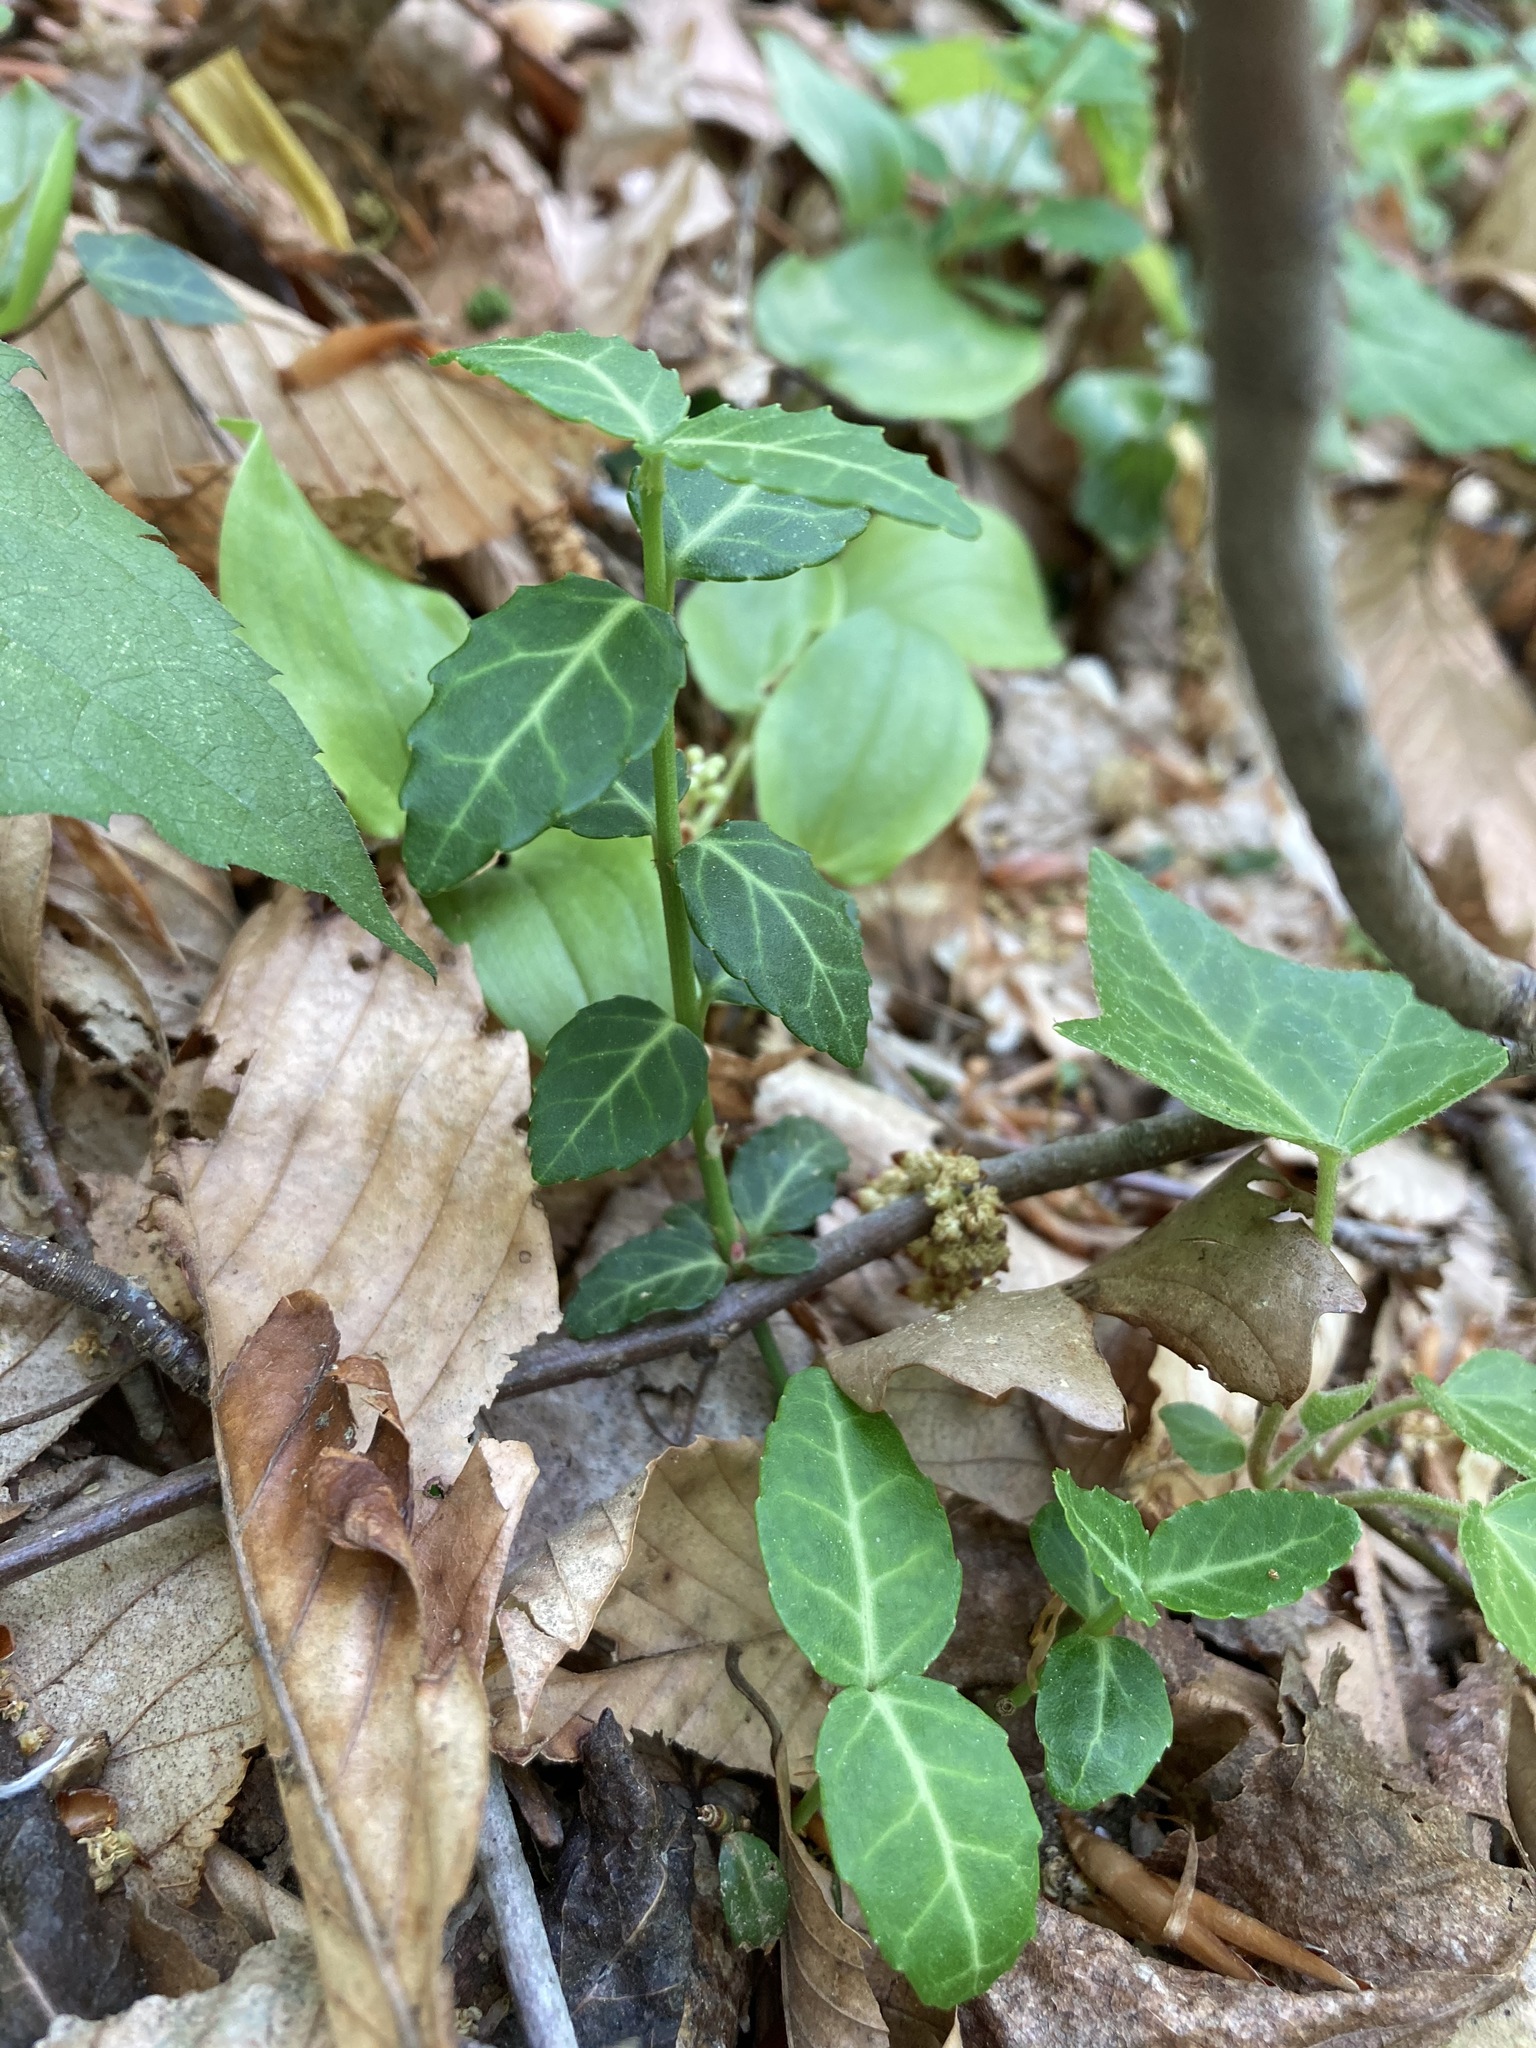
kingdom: Plantae
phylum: Tracheophyta
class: Magnoliopsida
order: Celastrales
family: Celastraceae
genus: Euonymus
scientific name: Euonymus fortunei
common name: Climbing euonymus
